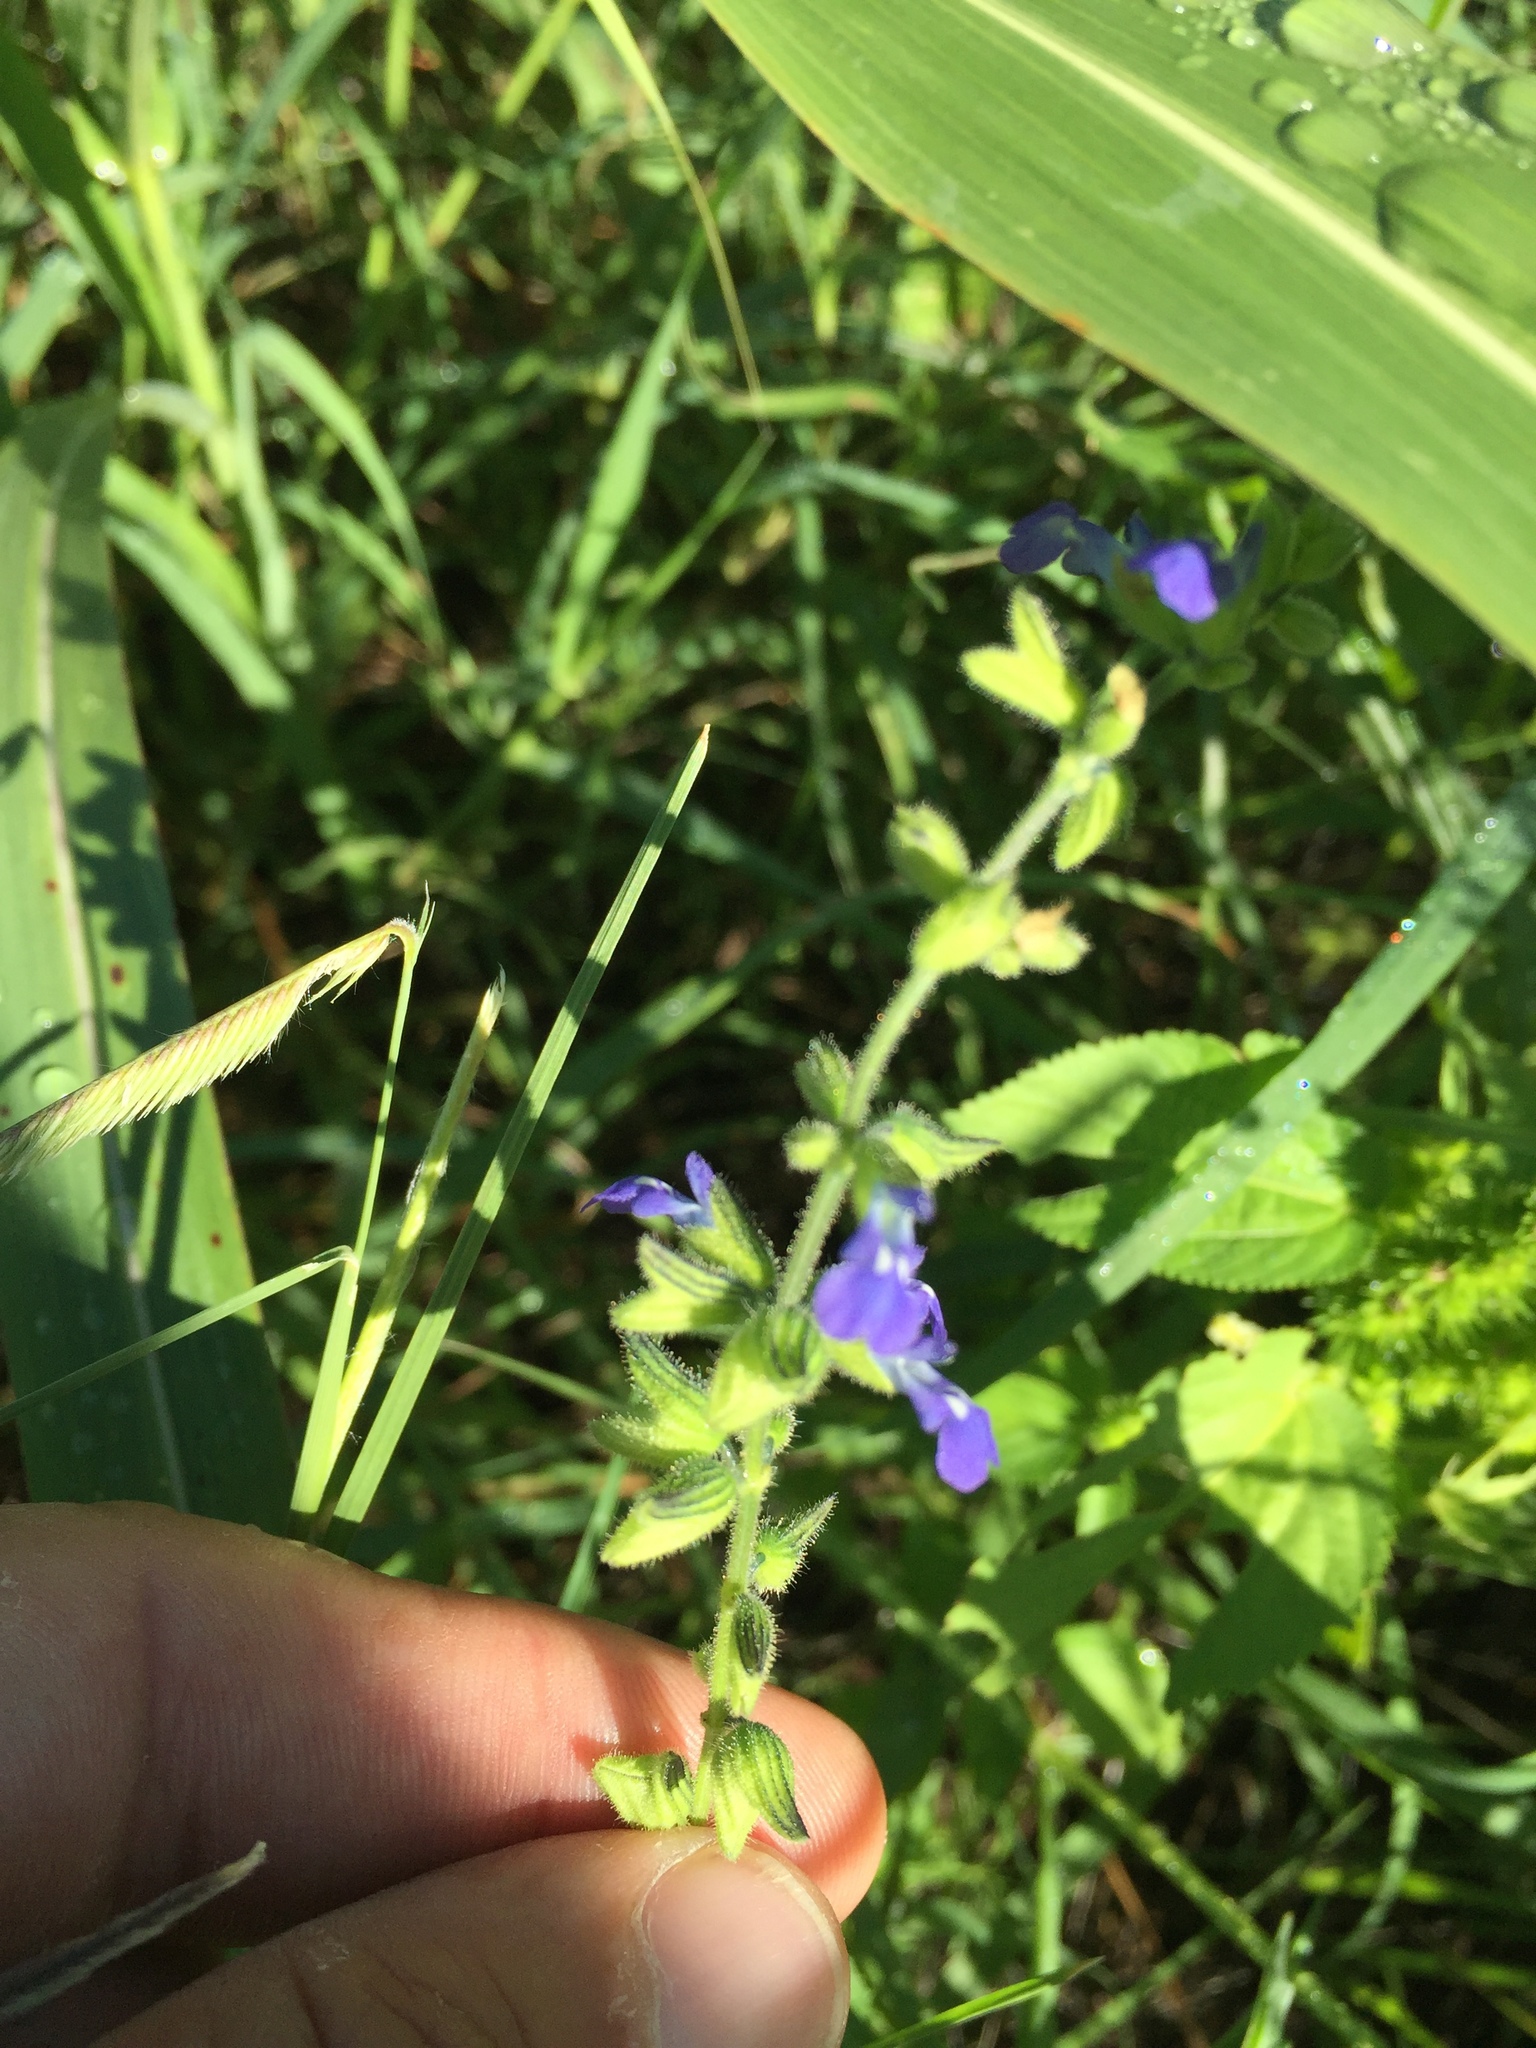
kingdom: Plantae
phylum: Tracheophyta
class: Magnoliopsida
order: Lamiales
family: Lamiaceae
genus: Salvia
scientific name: Salvia subincisa
